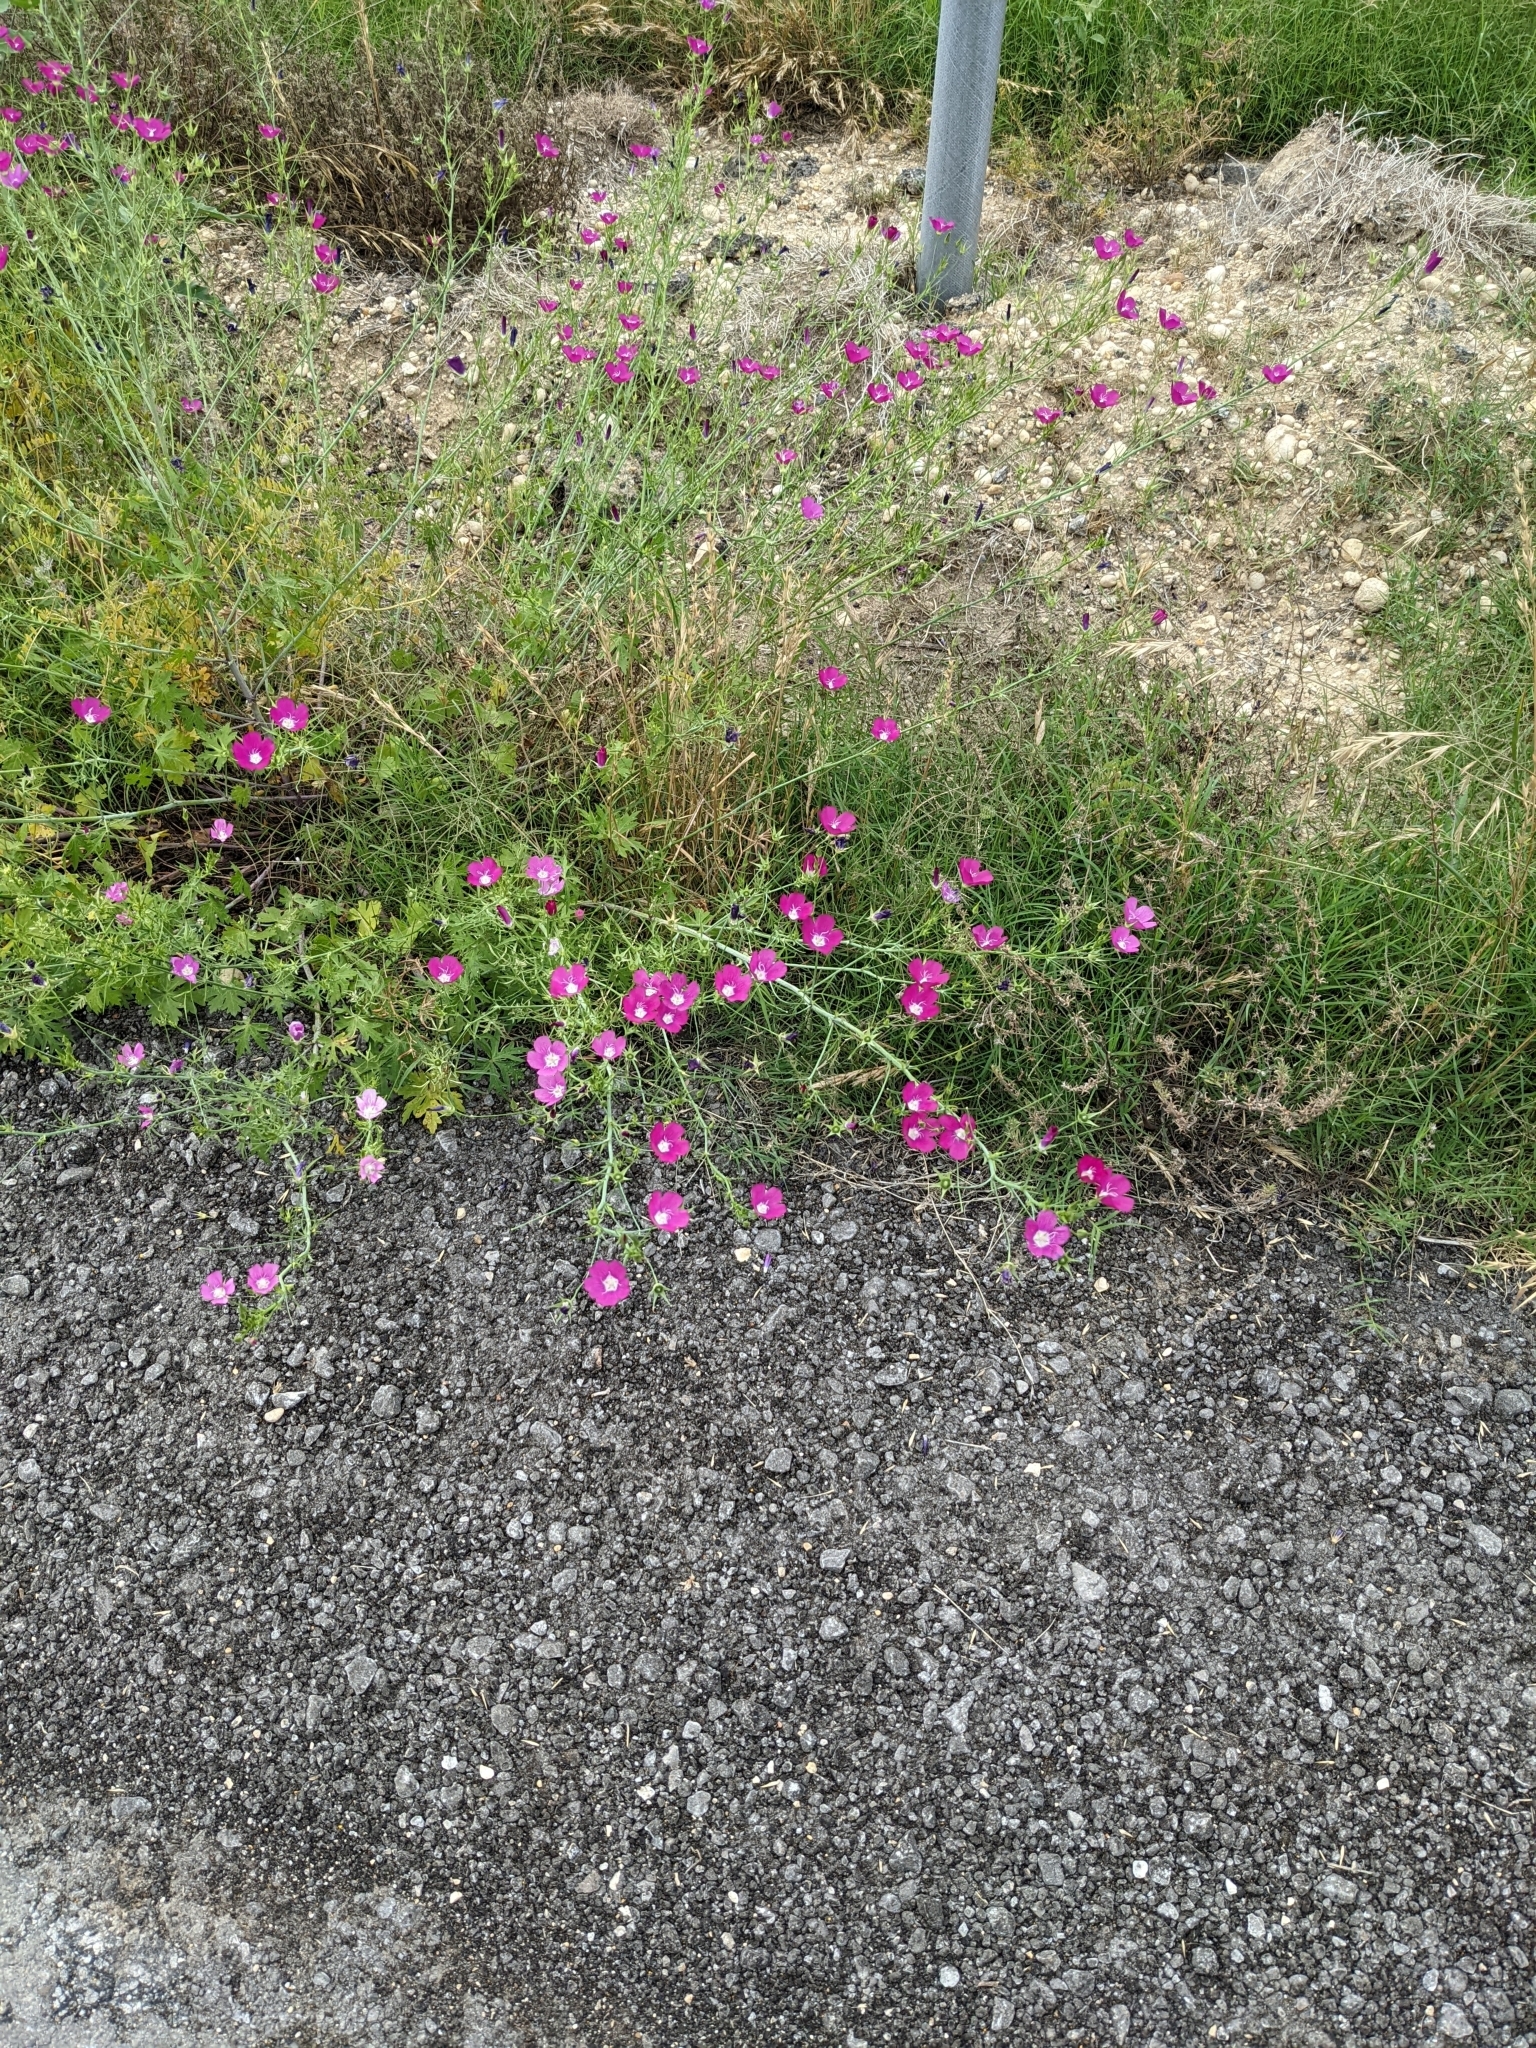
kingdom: Plantae
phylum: Tracheophyta
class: Magnoliopsida
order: Malvales
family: Malvaceae
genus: Callirhoe
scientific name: Callirhoe leiocarpa
